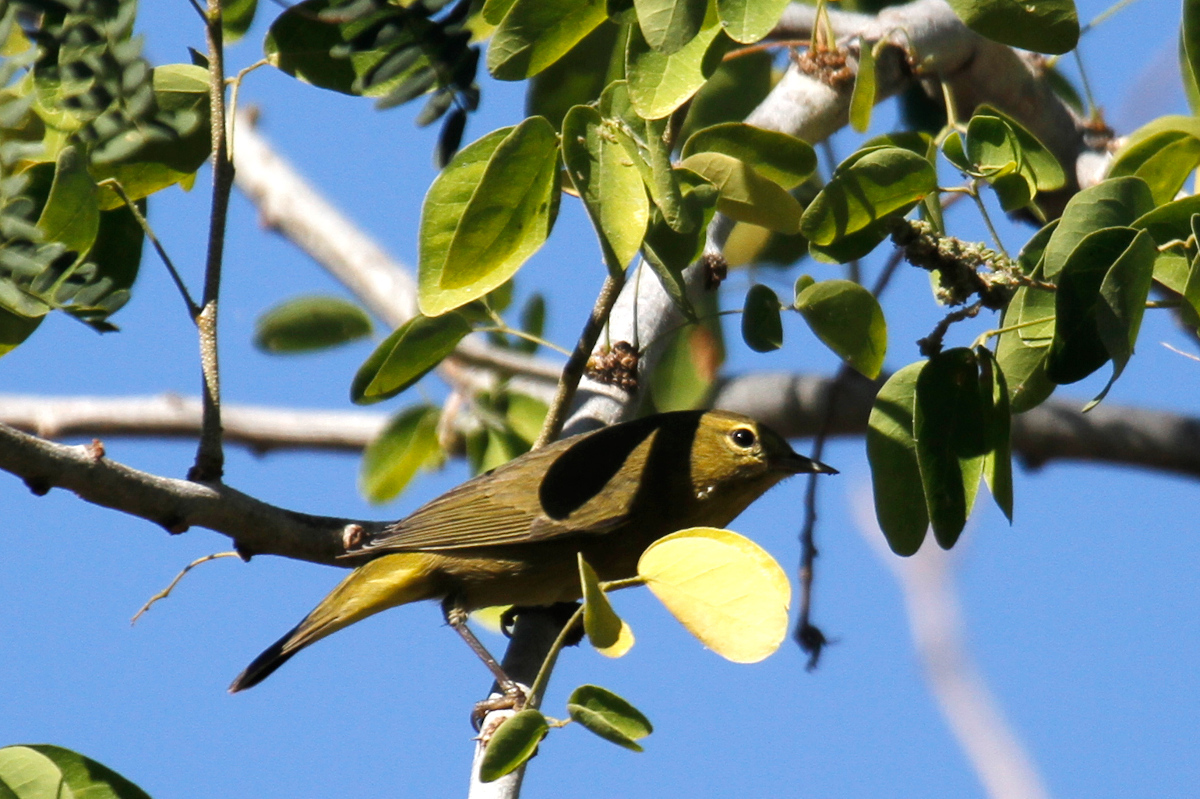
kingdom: Animalia
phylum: Chordata
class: Aves
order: Passeriformes
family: Parulidae
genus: Leiothlypis
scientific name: Leiothlypis celata
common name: Orange-crowned warbler
